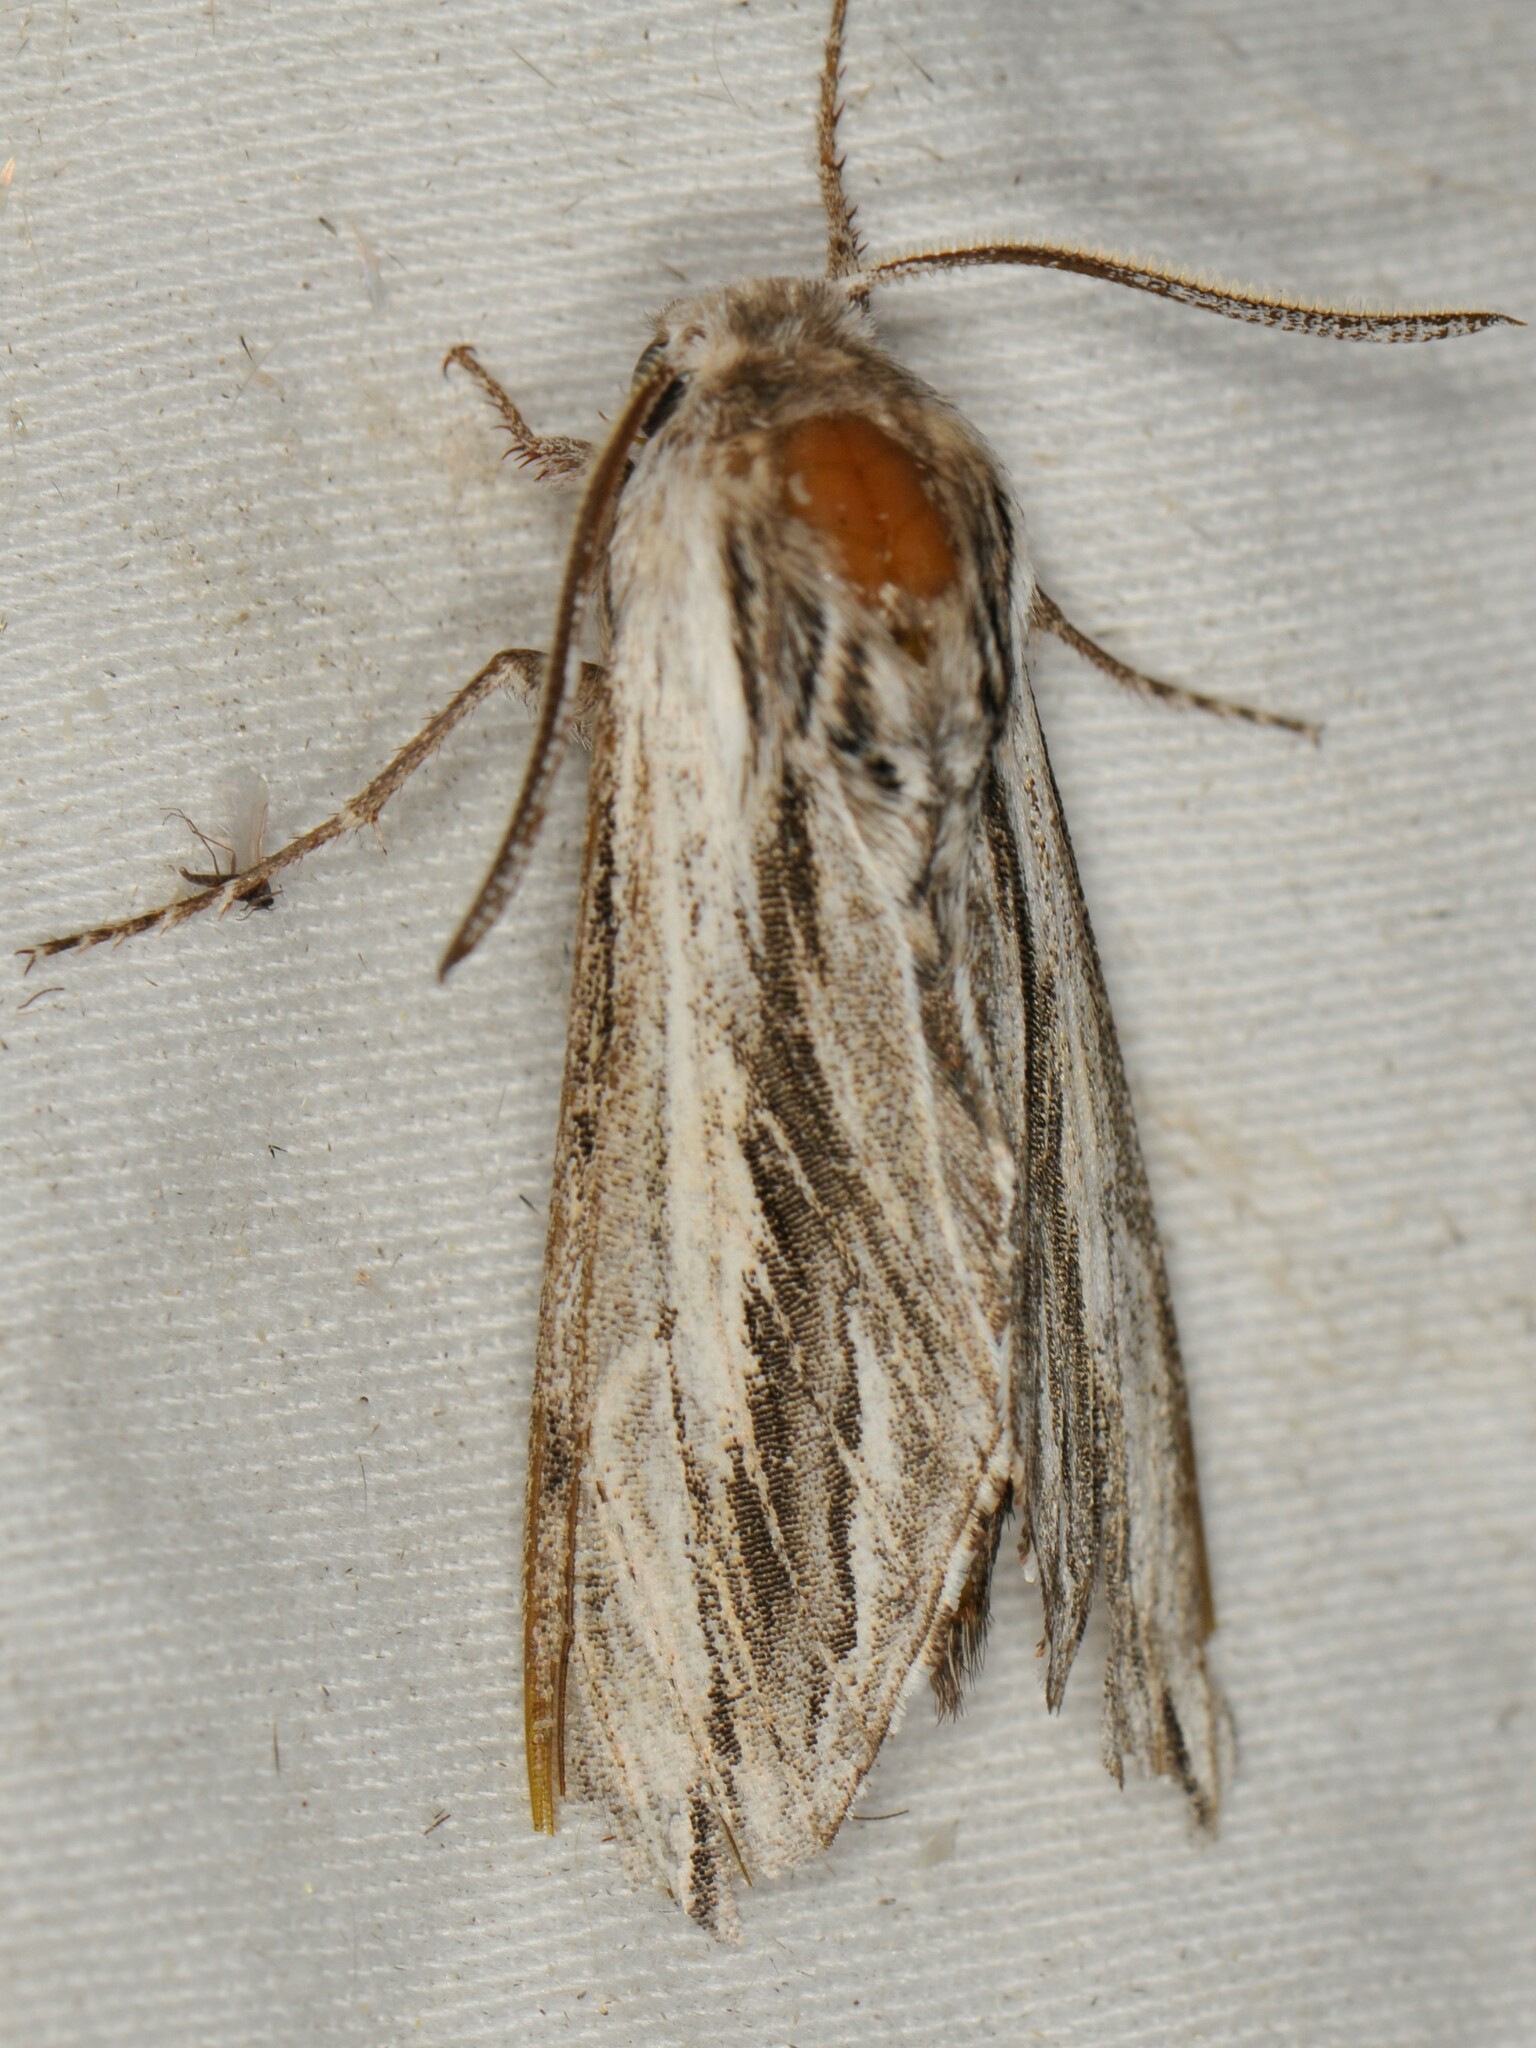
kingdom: Animalia
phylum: Arthropoda
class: Insecta
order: Lepidoptera
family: Sphingidae
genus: Sphinx
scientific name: Sphinx dollii
